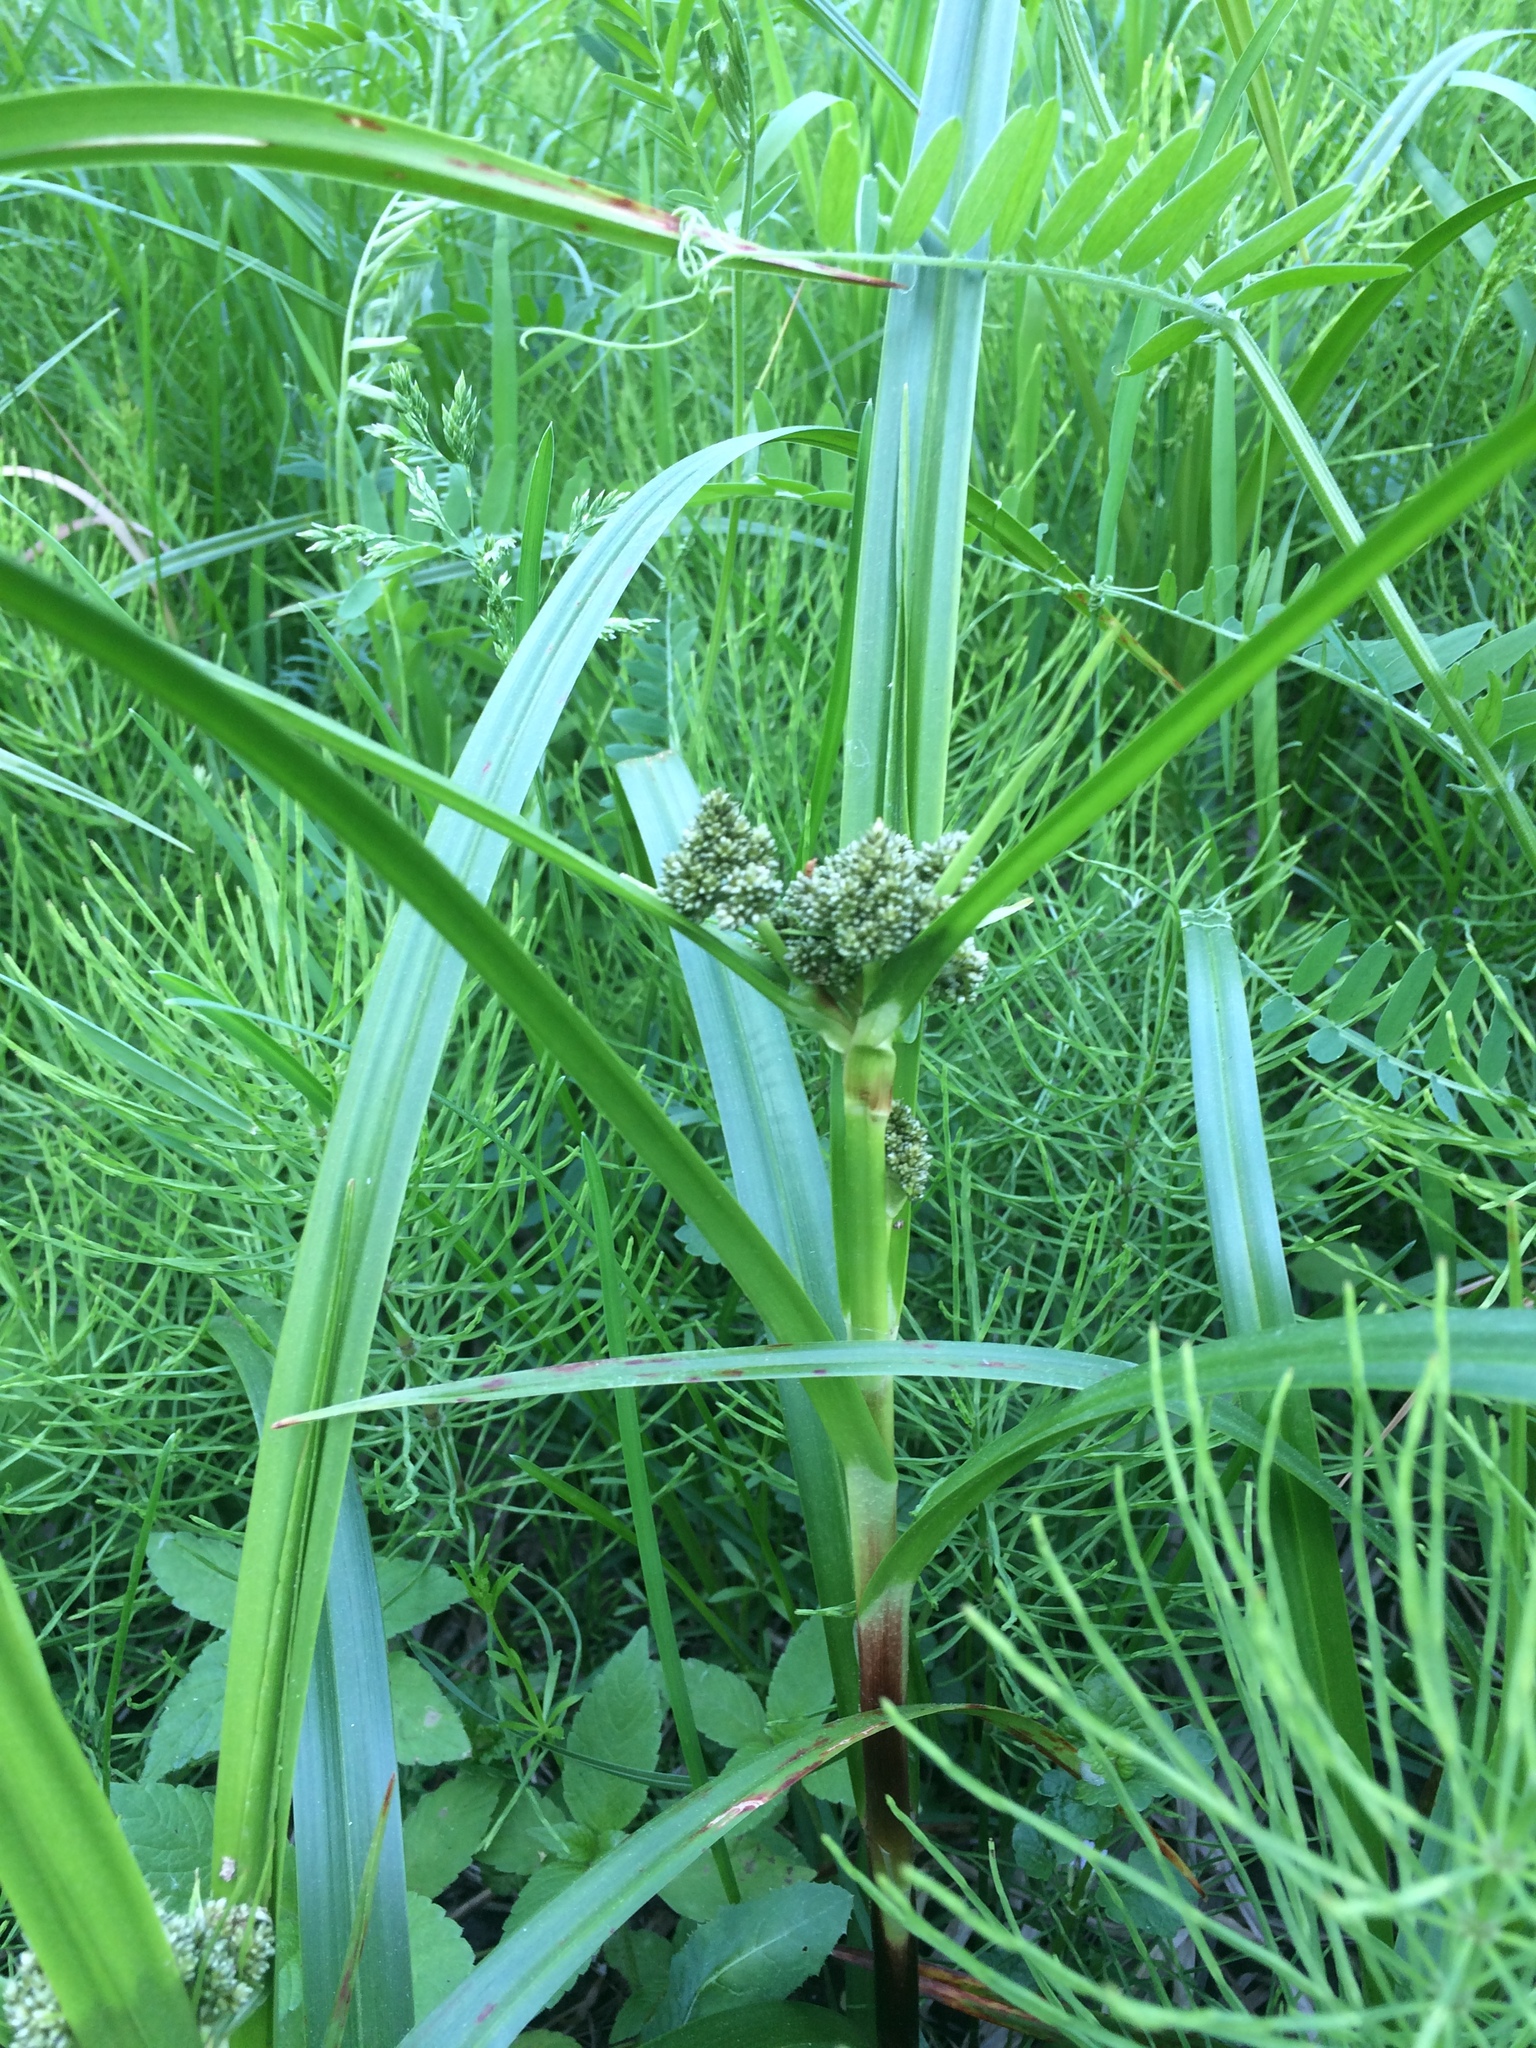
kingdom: Plantae
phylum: Tracheophyta
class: Liliopsida
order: Poales
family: Cyperaceae
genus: Scirpus
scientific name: Scirpus microcarpus
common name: Panicled bulrush
